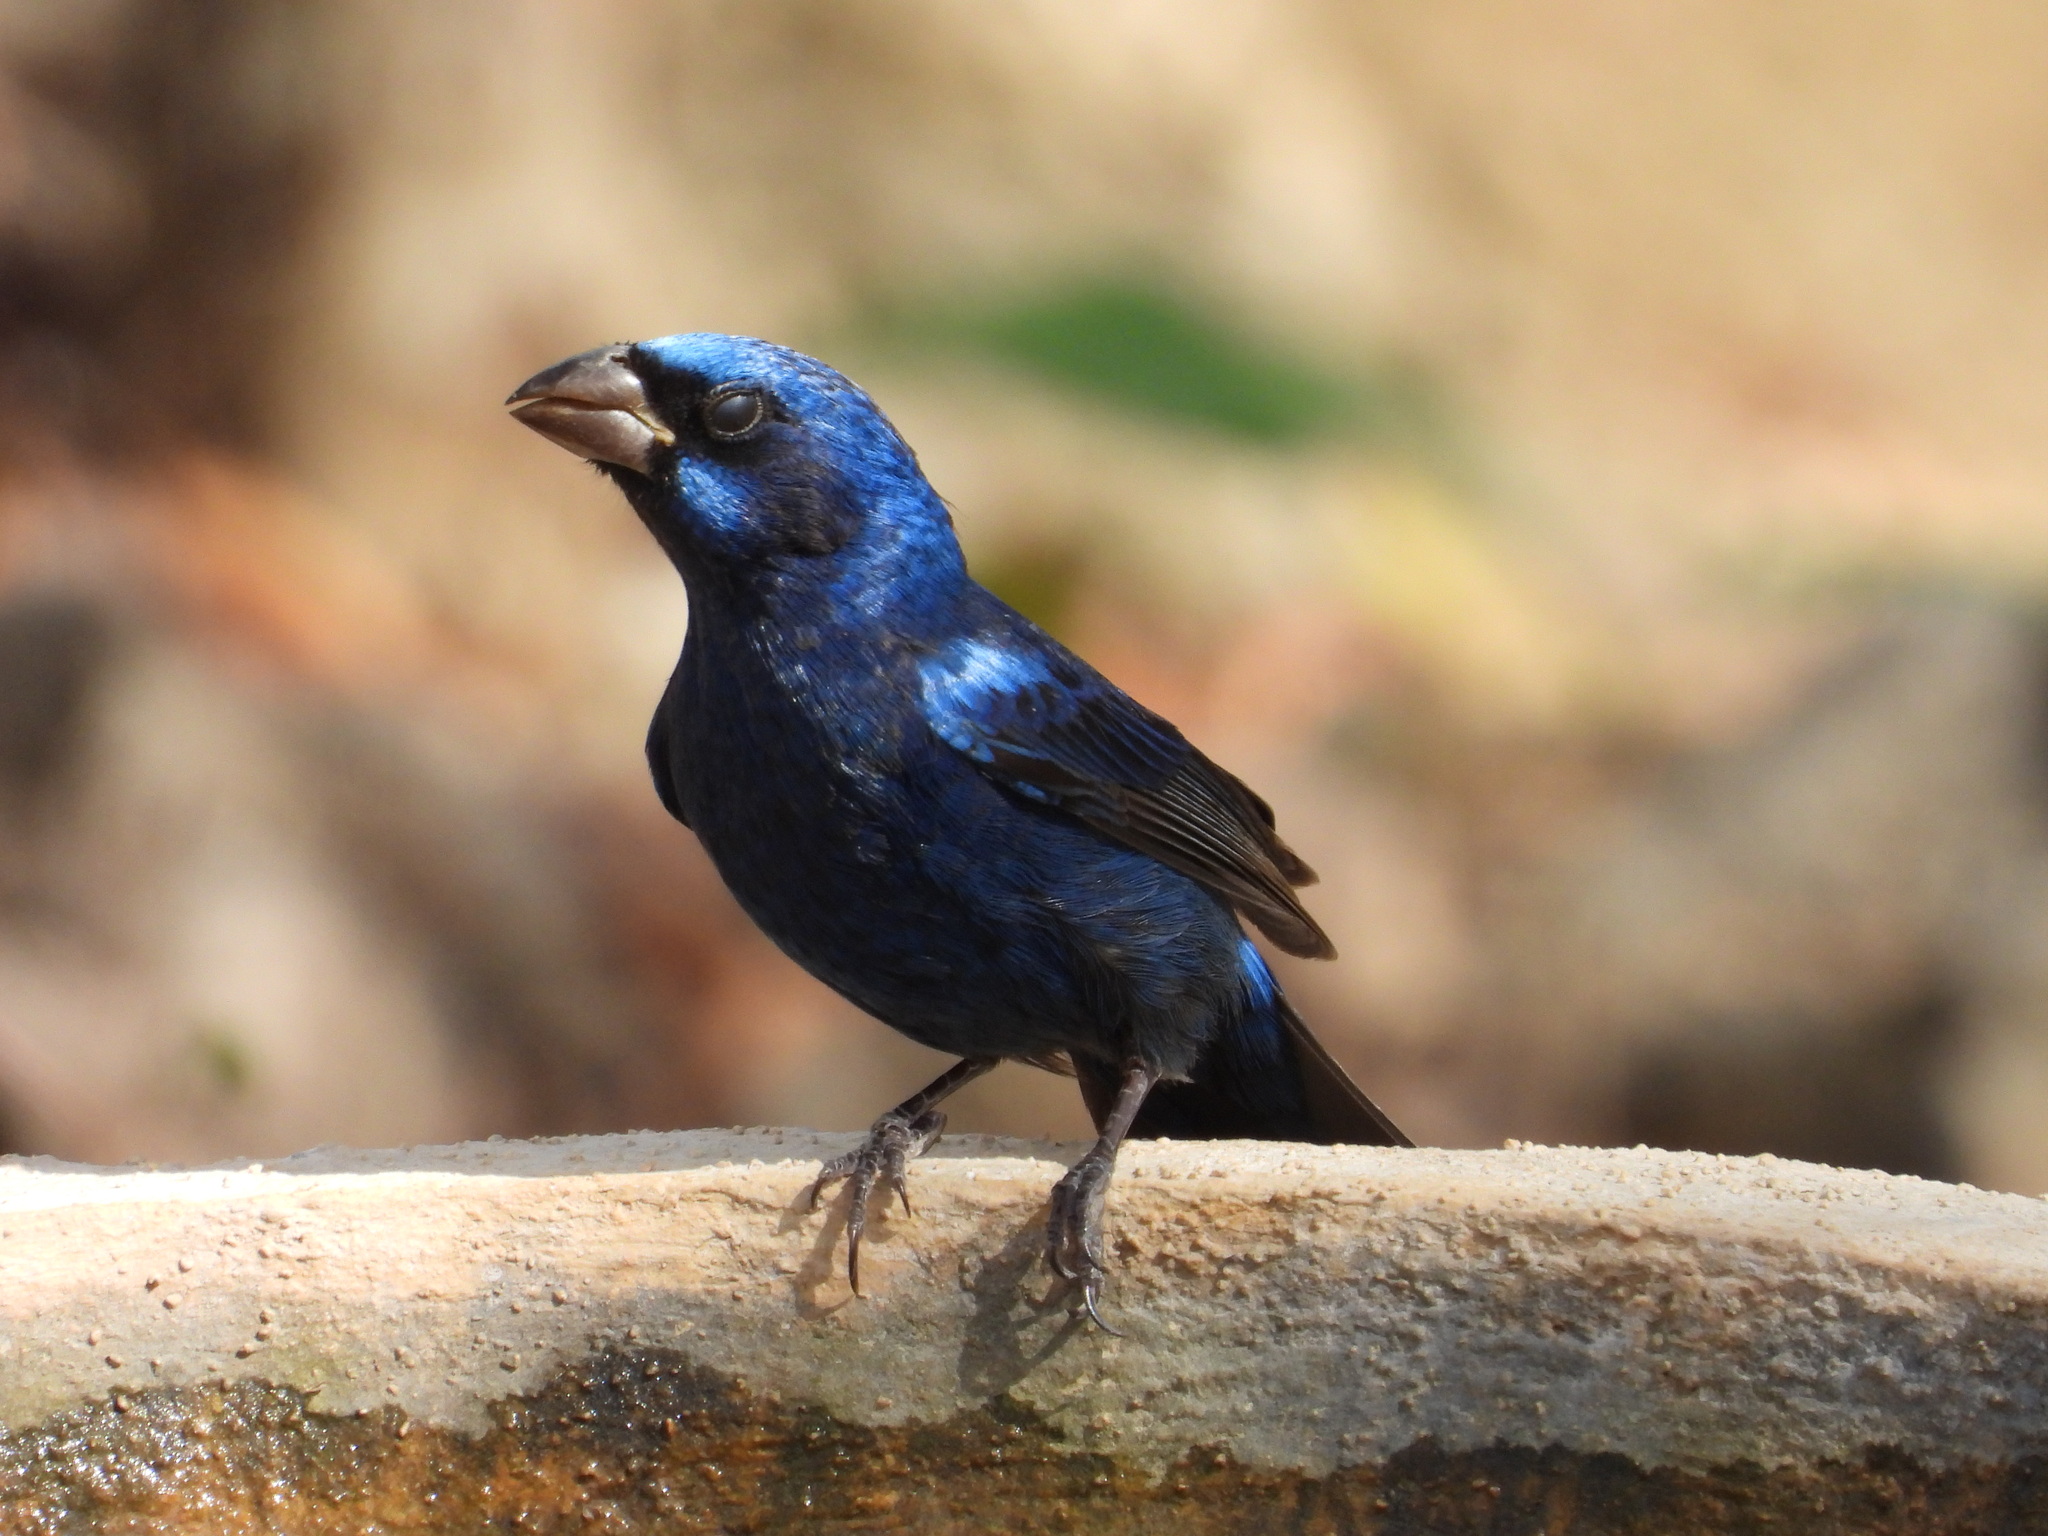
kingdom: Animalia
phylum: Chordata
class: Aves
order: Passeriformes
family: Cardinalidae
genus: Cyanocompsa
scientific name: Cyanocompsa parellina
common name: Blue bunting
